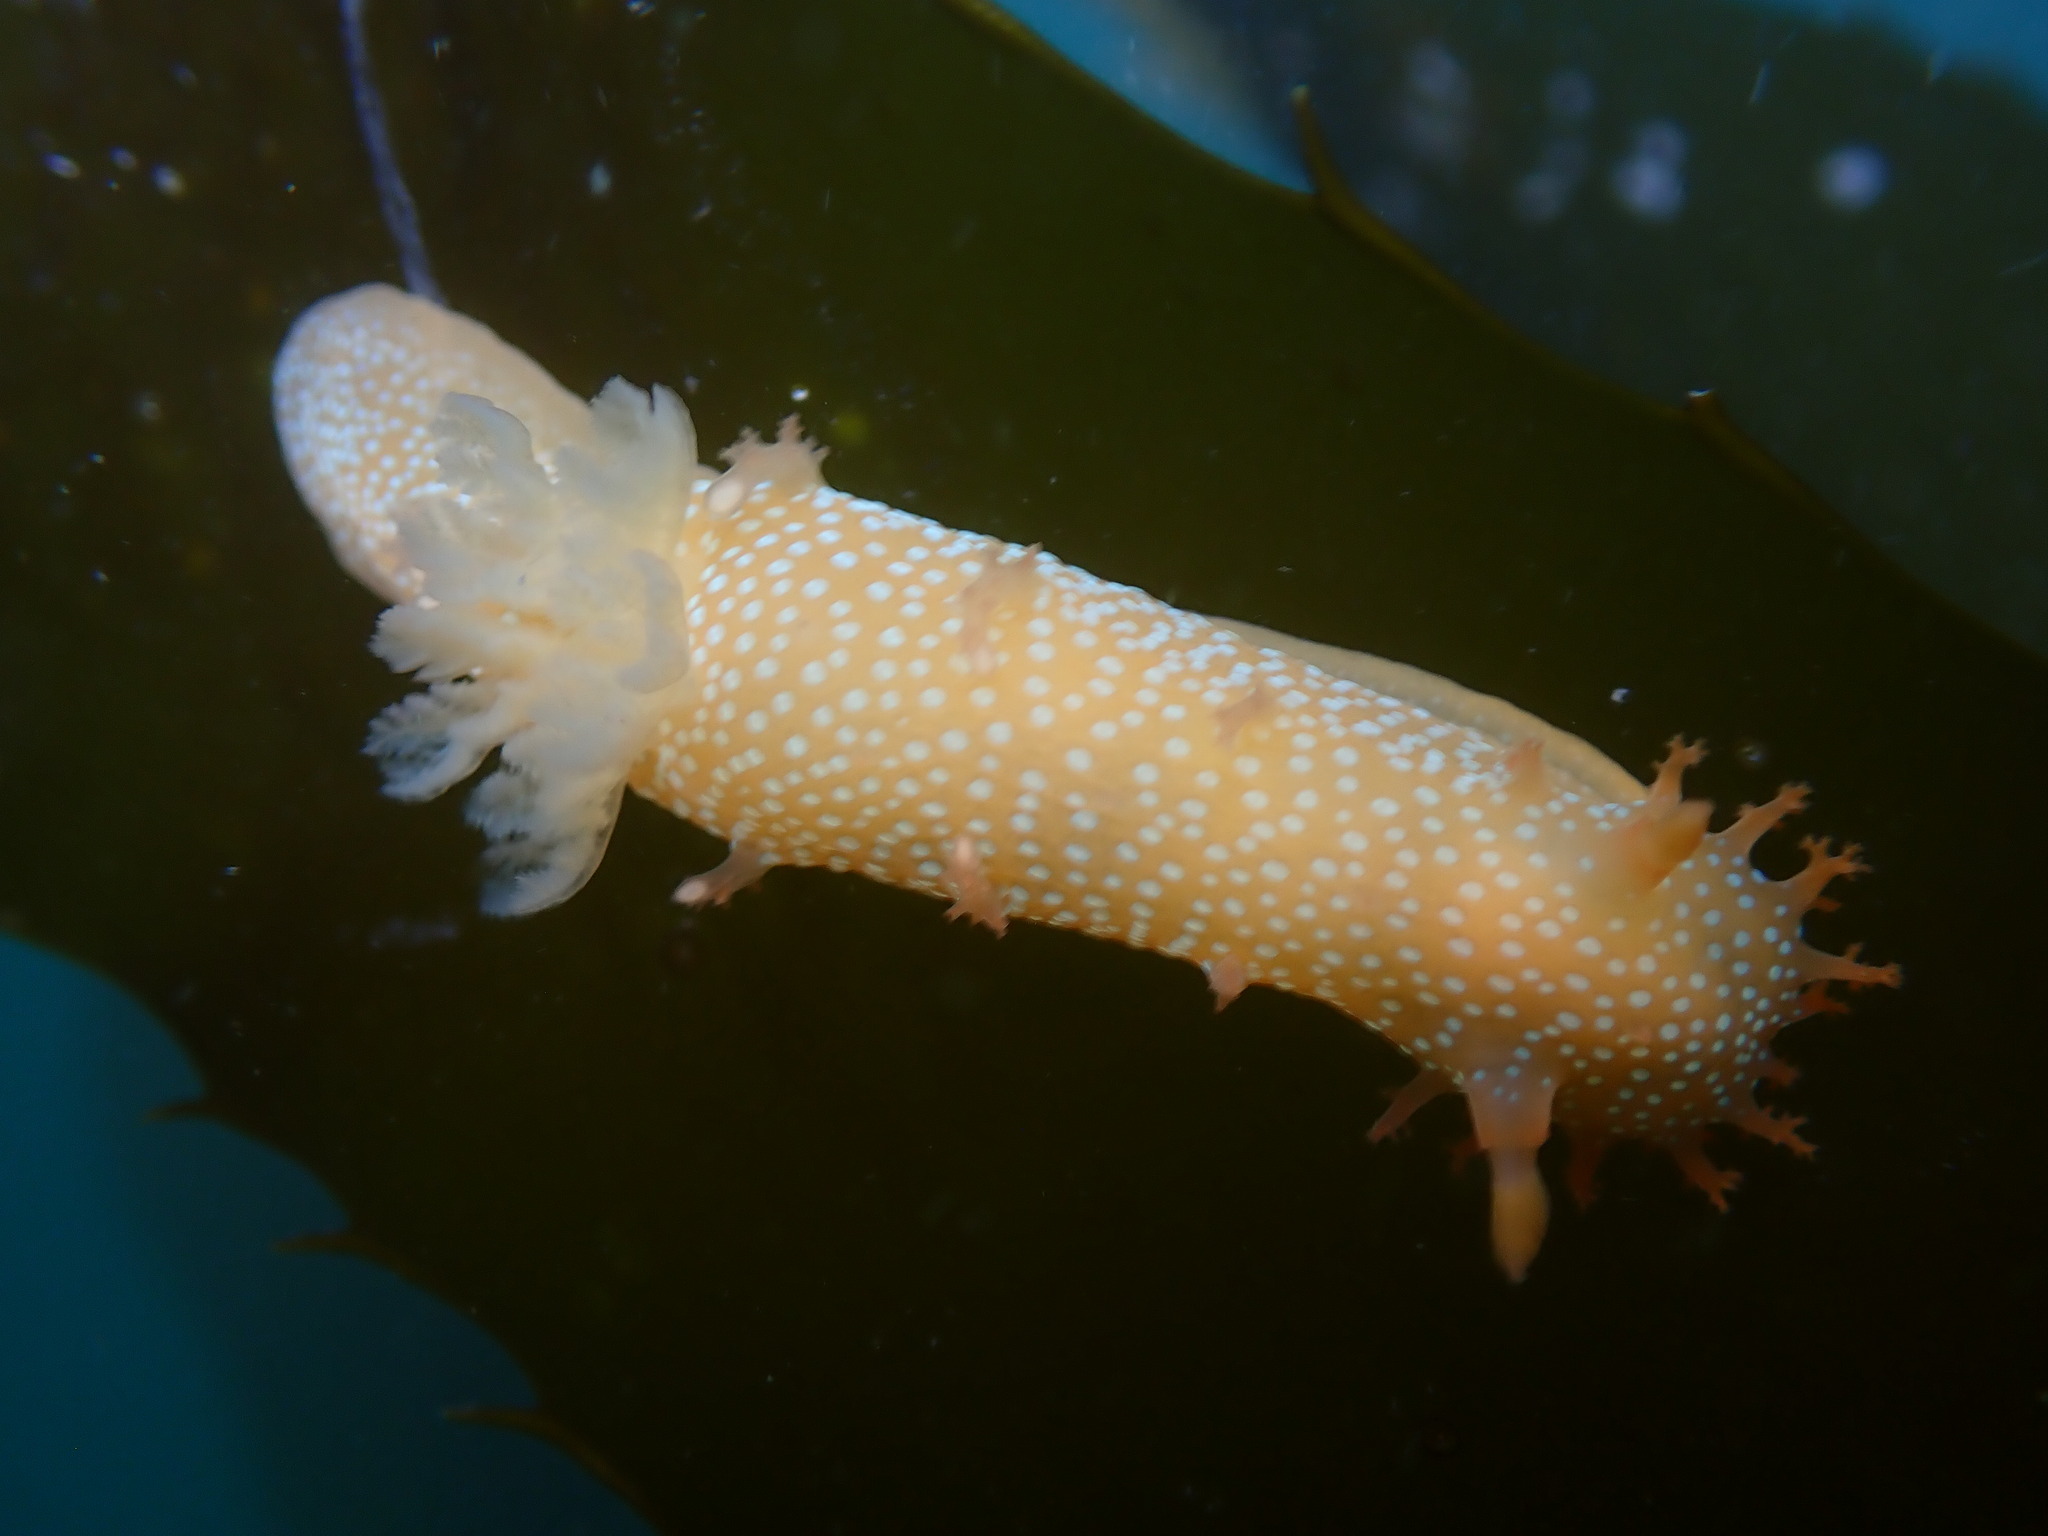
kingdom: Animalia
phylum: Mollusca
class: Gastropoda
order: Nudibranchia
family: Polyceridae
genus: Triopha
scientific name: Triopha maculata
